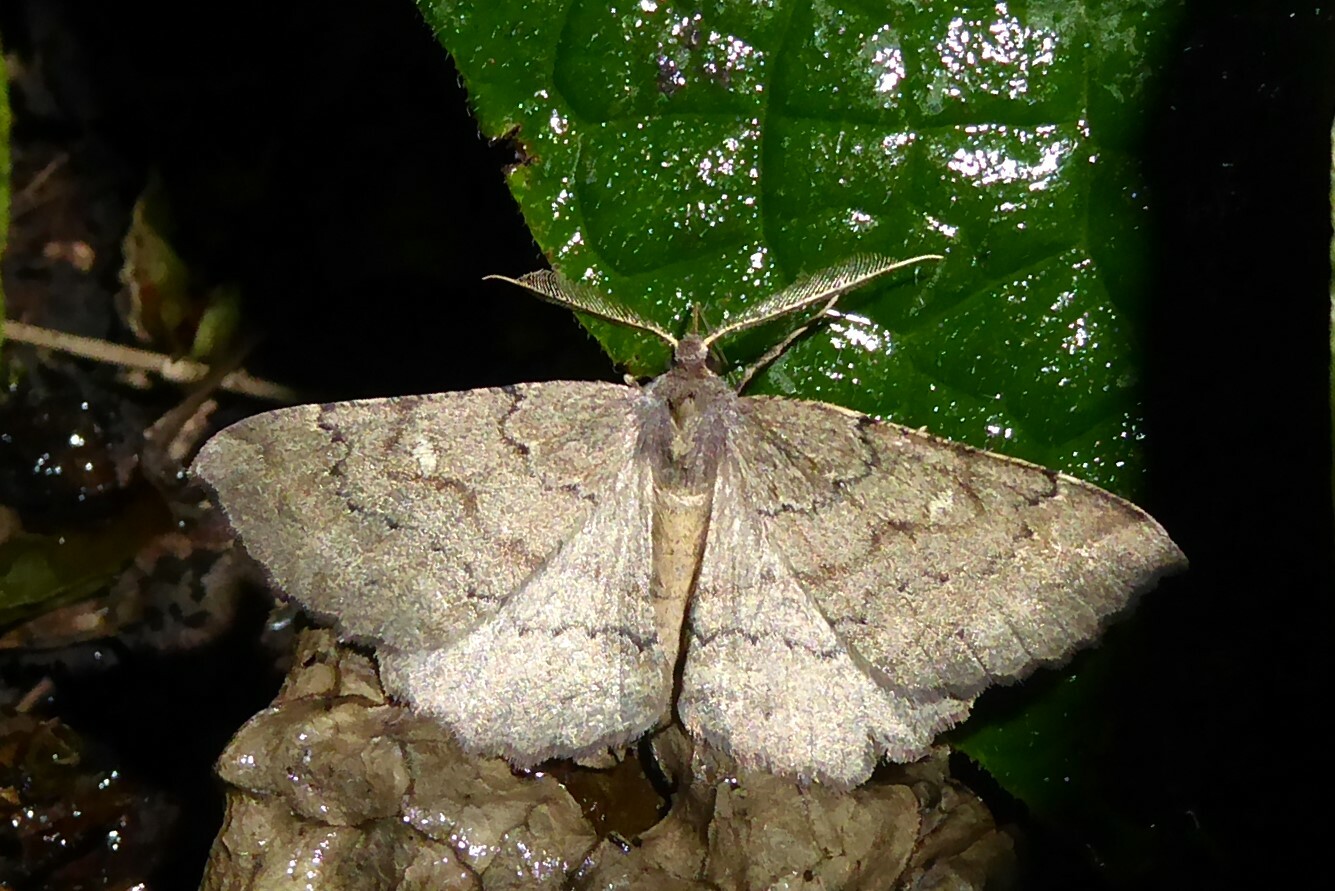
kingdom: Animalia
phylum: Arthropoda
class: Insecta
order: Lepidoptera
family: Geometridae
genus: Cleora
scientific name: Cleora scriptaria
